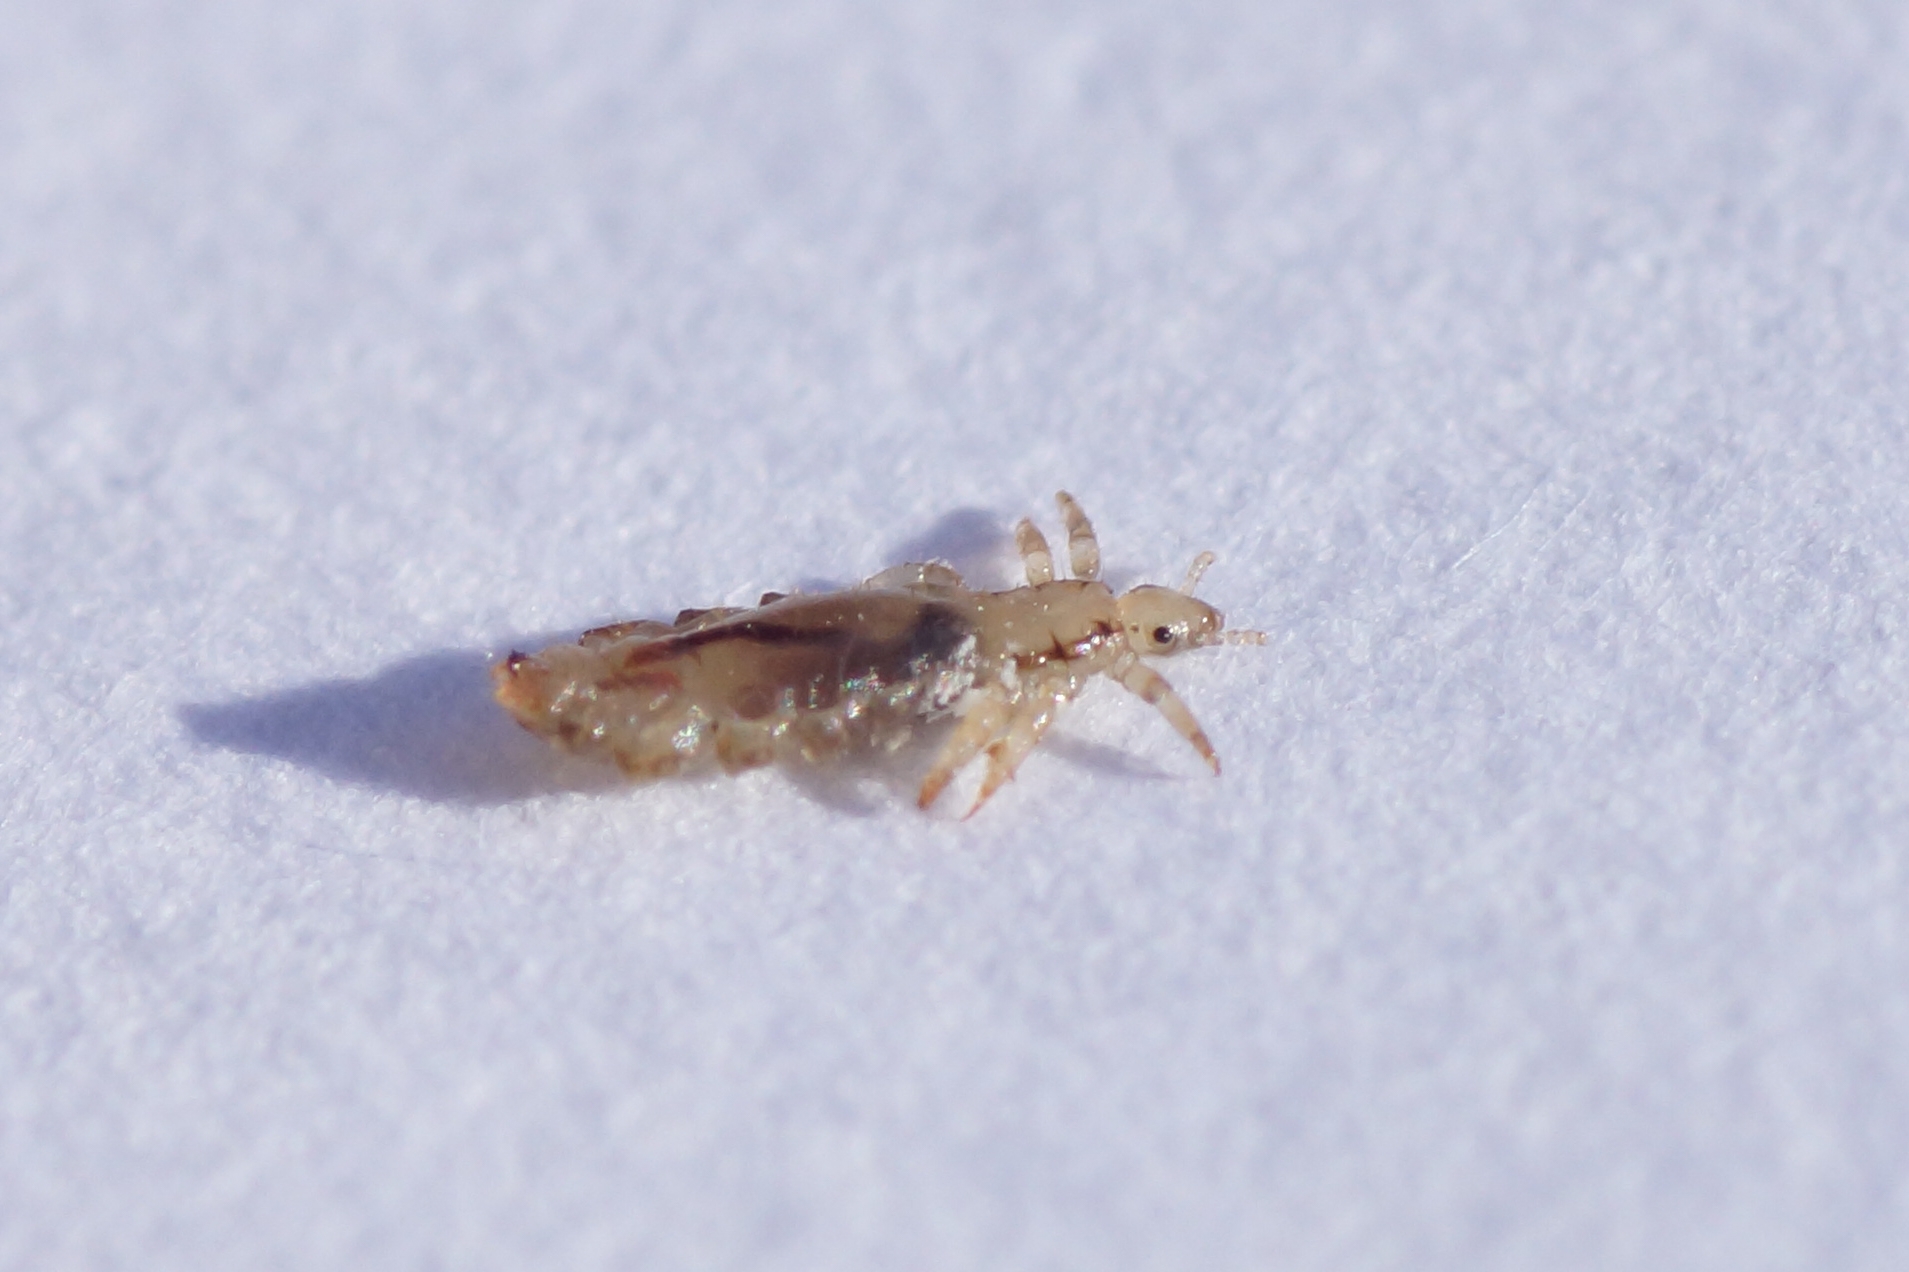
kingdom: Animalia
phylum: Arthropoda
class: Insecta
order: Psocodea
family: Pediculidae
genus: Pediculus
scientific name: Pediculus humanus
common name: Body louse
